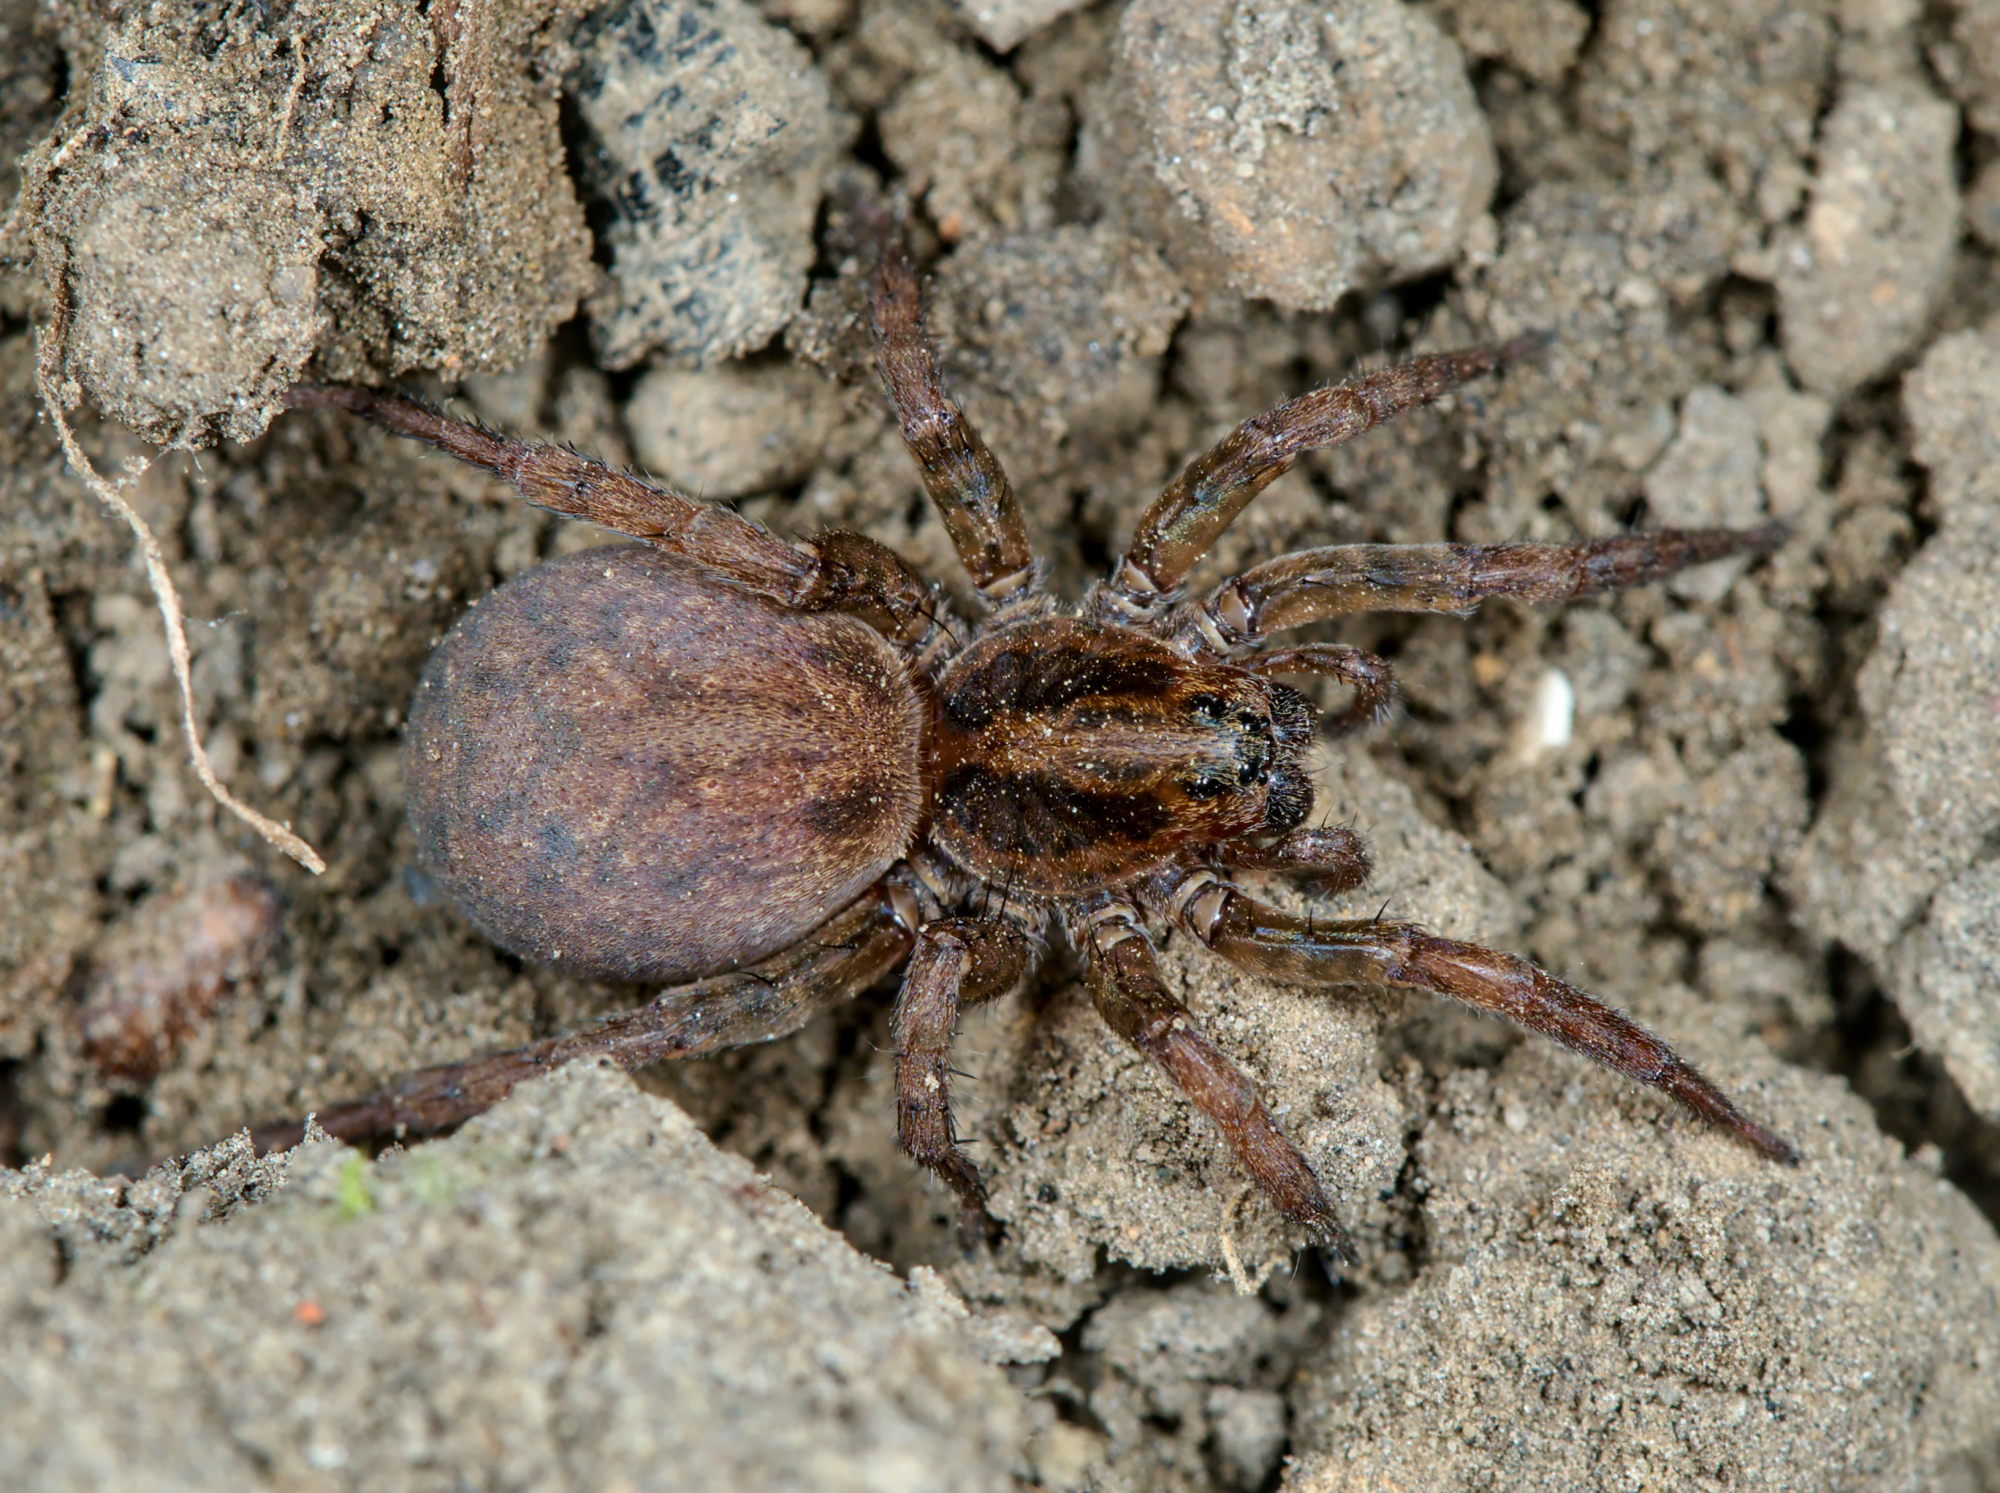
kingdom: Animalia
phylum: Arthropoda
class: Arachnida
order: Araneae
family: Lycosidae
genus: Trochosa
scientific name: Trochosa
